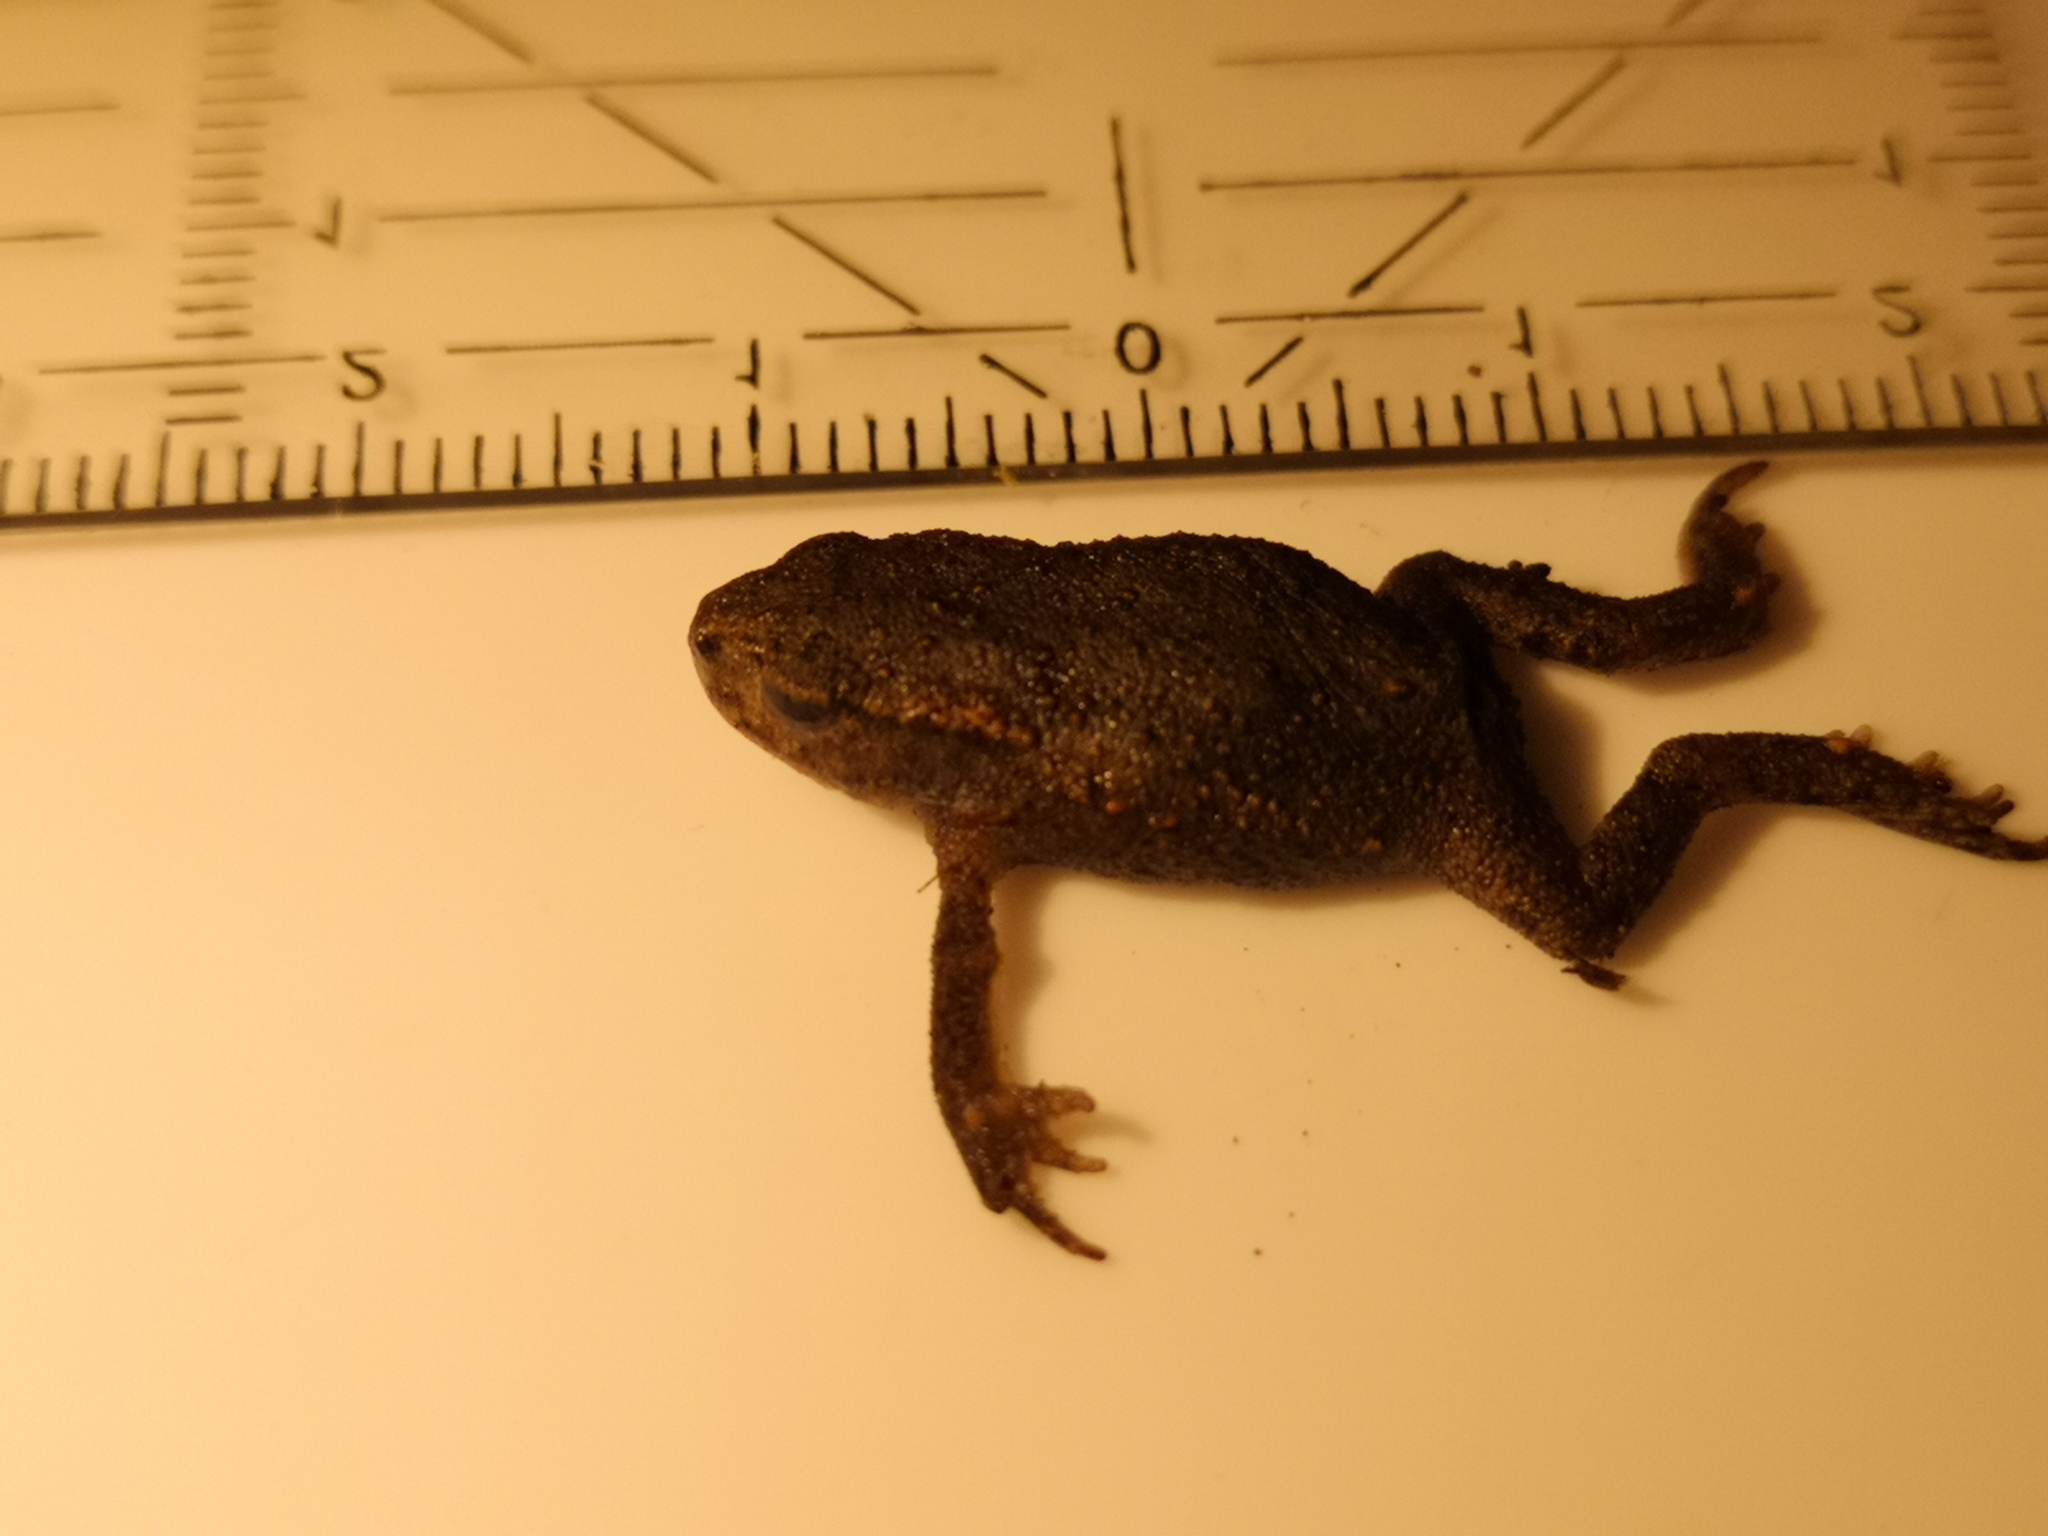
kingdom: Animalia
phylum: Chordata
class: Amphibia
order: Anura
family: Bufonidae
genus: Bufo
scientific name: Bufo bufo
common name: Common toad
